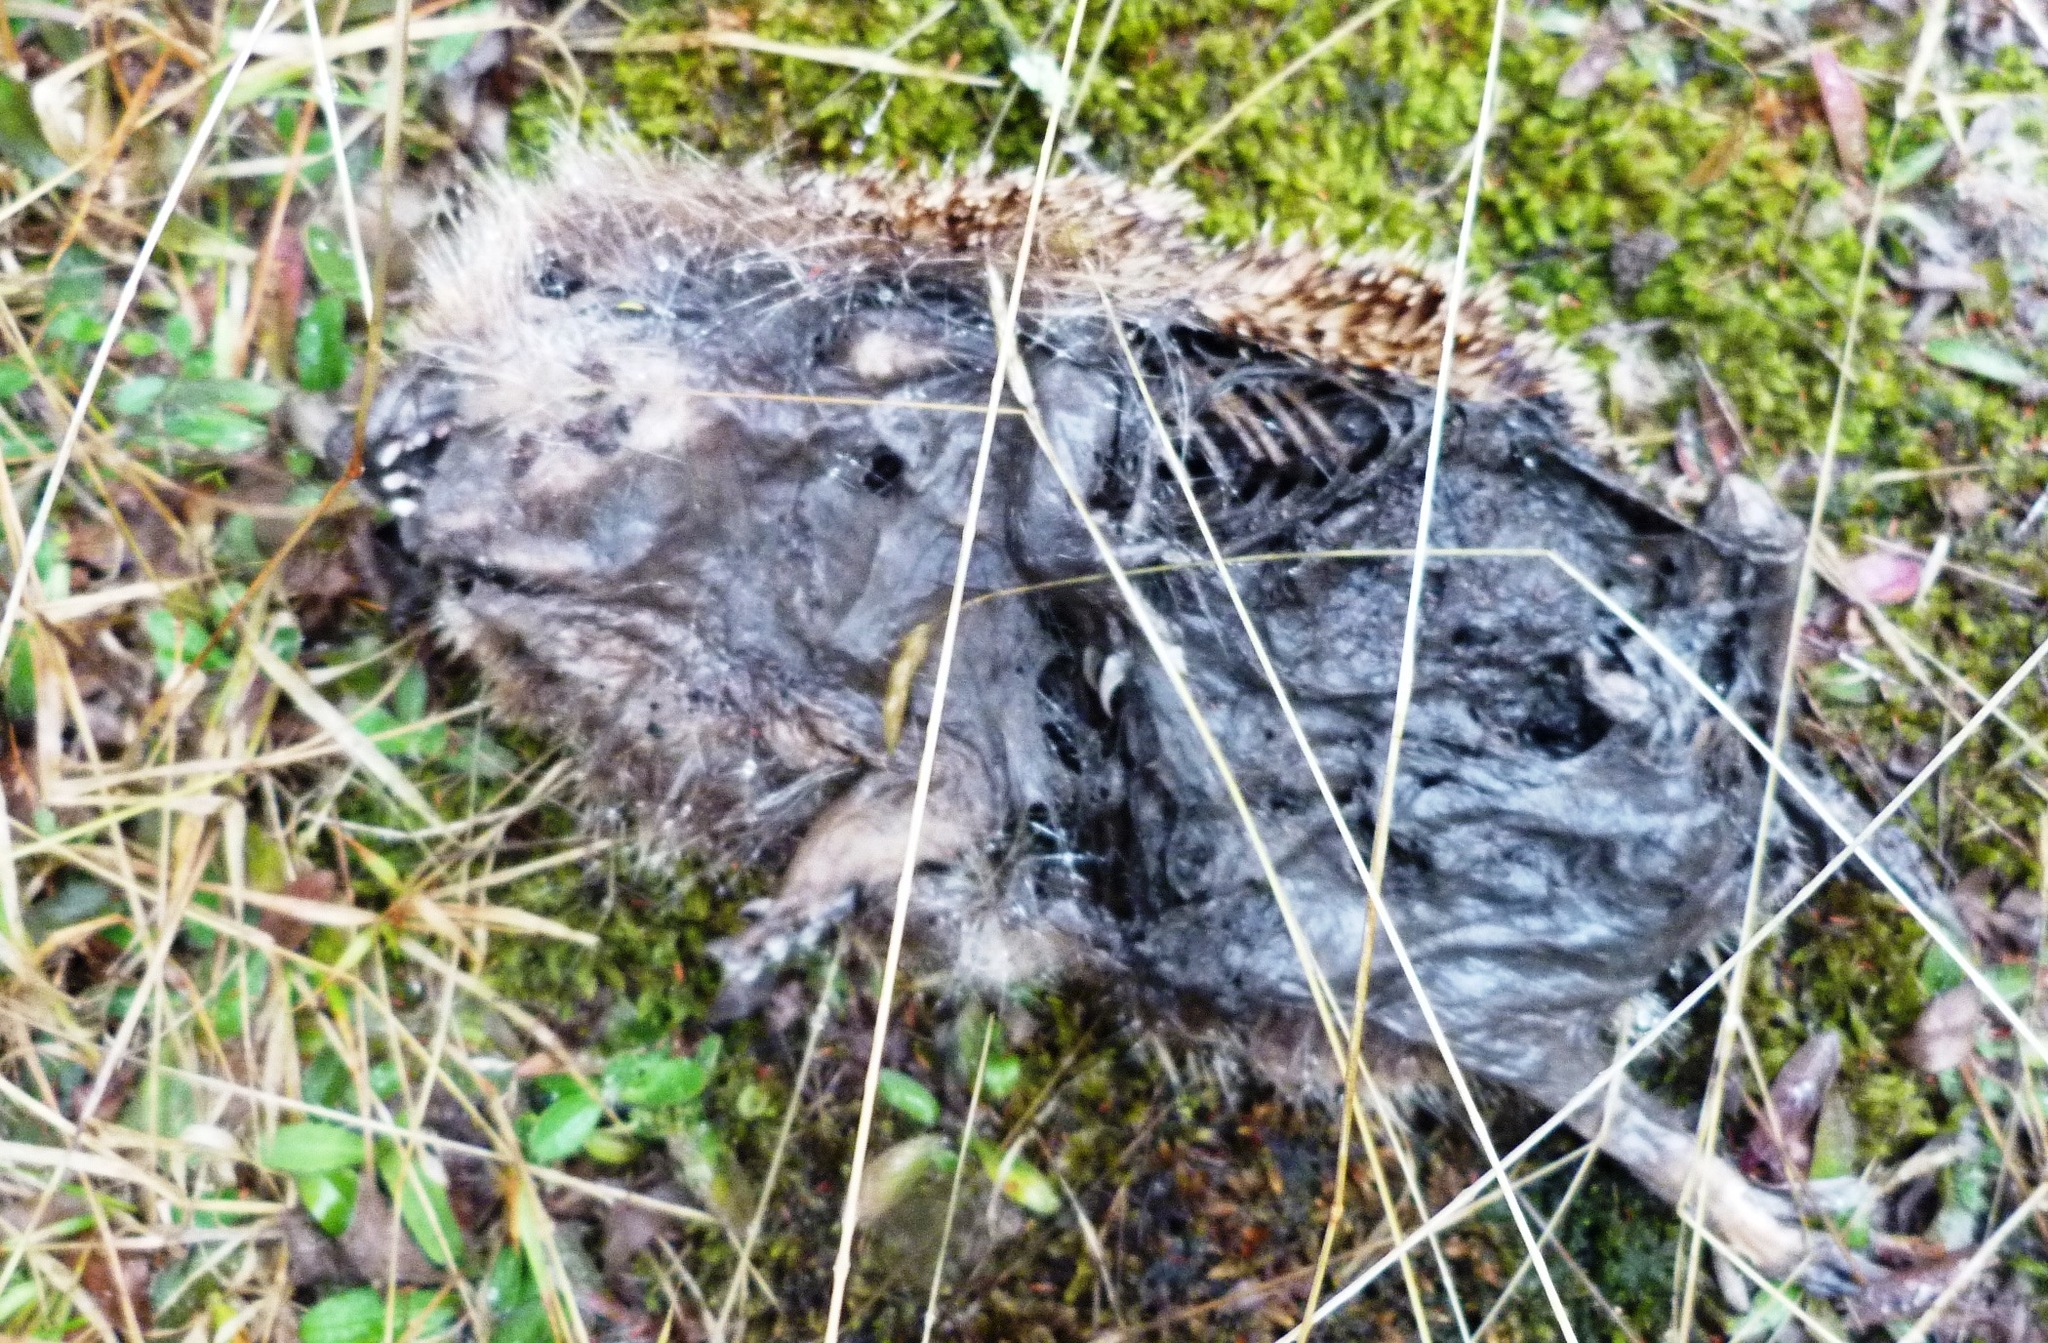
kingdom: Animalia
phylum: Chordata
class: Mammalia
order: Erinaceomorpha
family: Erinaceidae
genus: Erinaceus
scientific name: Erinaceus europaeus
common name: West european hedgehog
